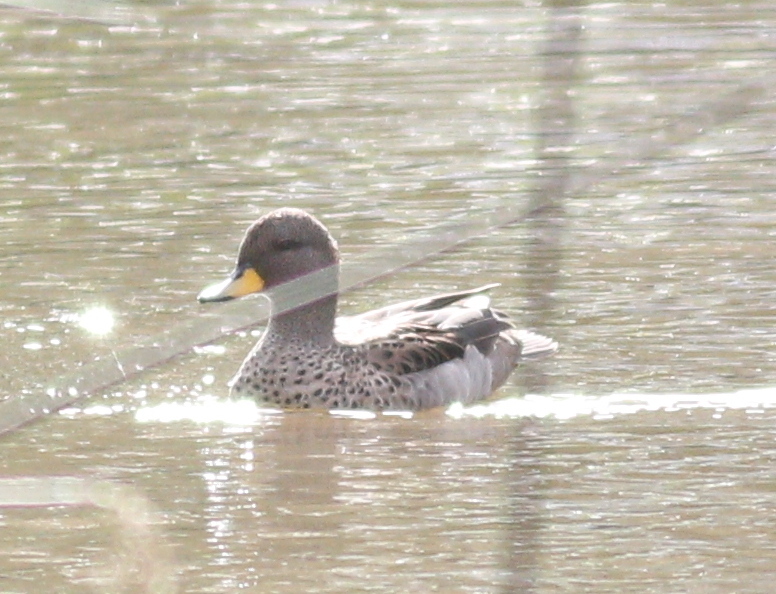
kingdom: Animalia
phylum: Chordata
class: Aves
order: Anseriformes
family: Anatidae
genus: Anas
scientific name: Anas flavirostris
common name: Yellow-billed teal
